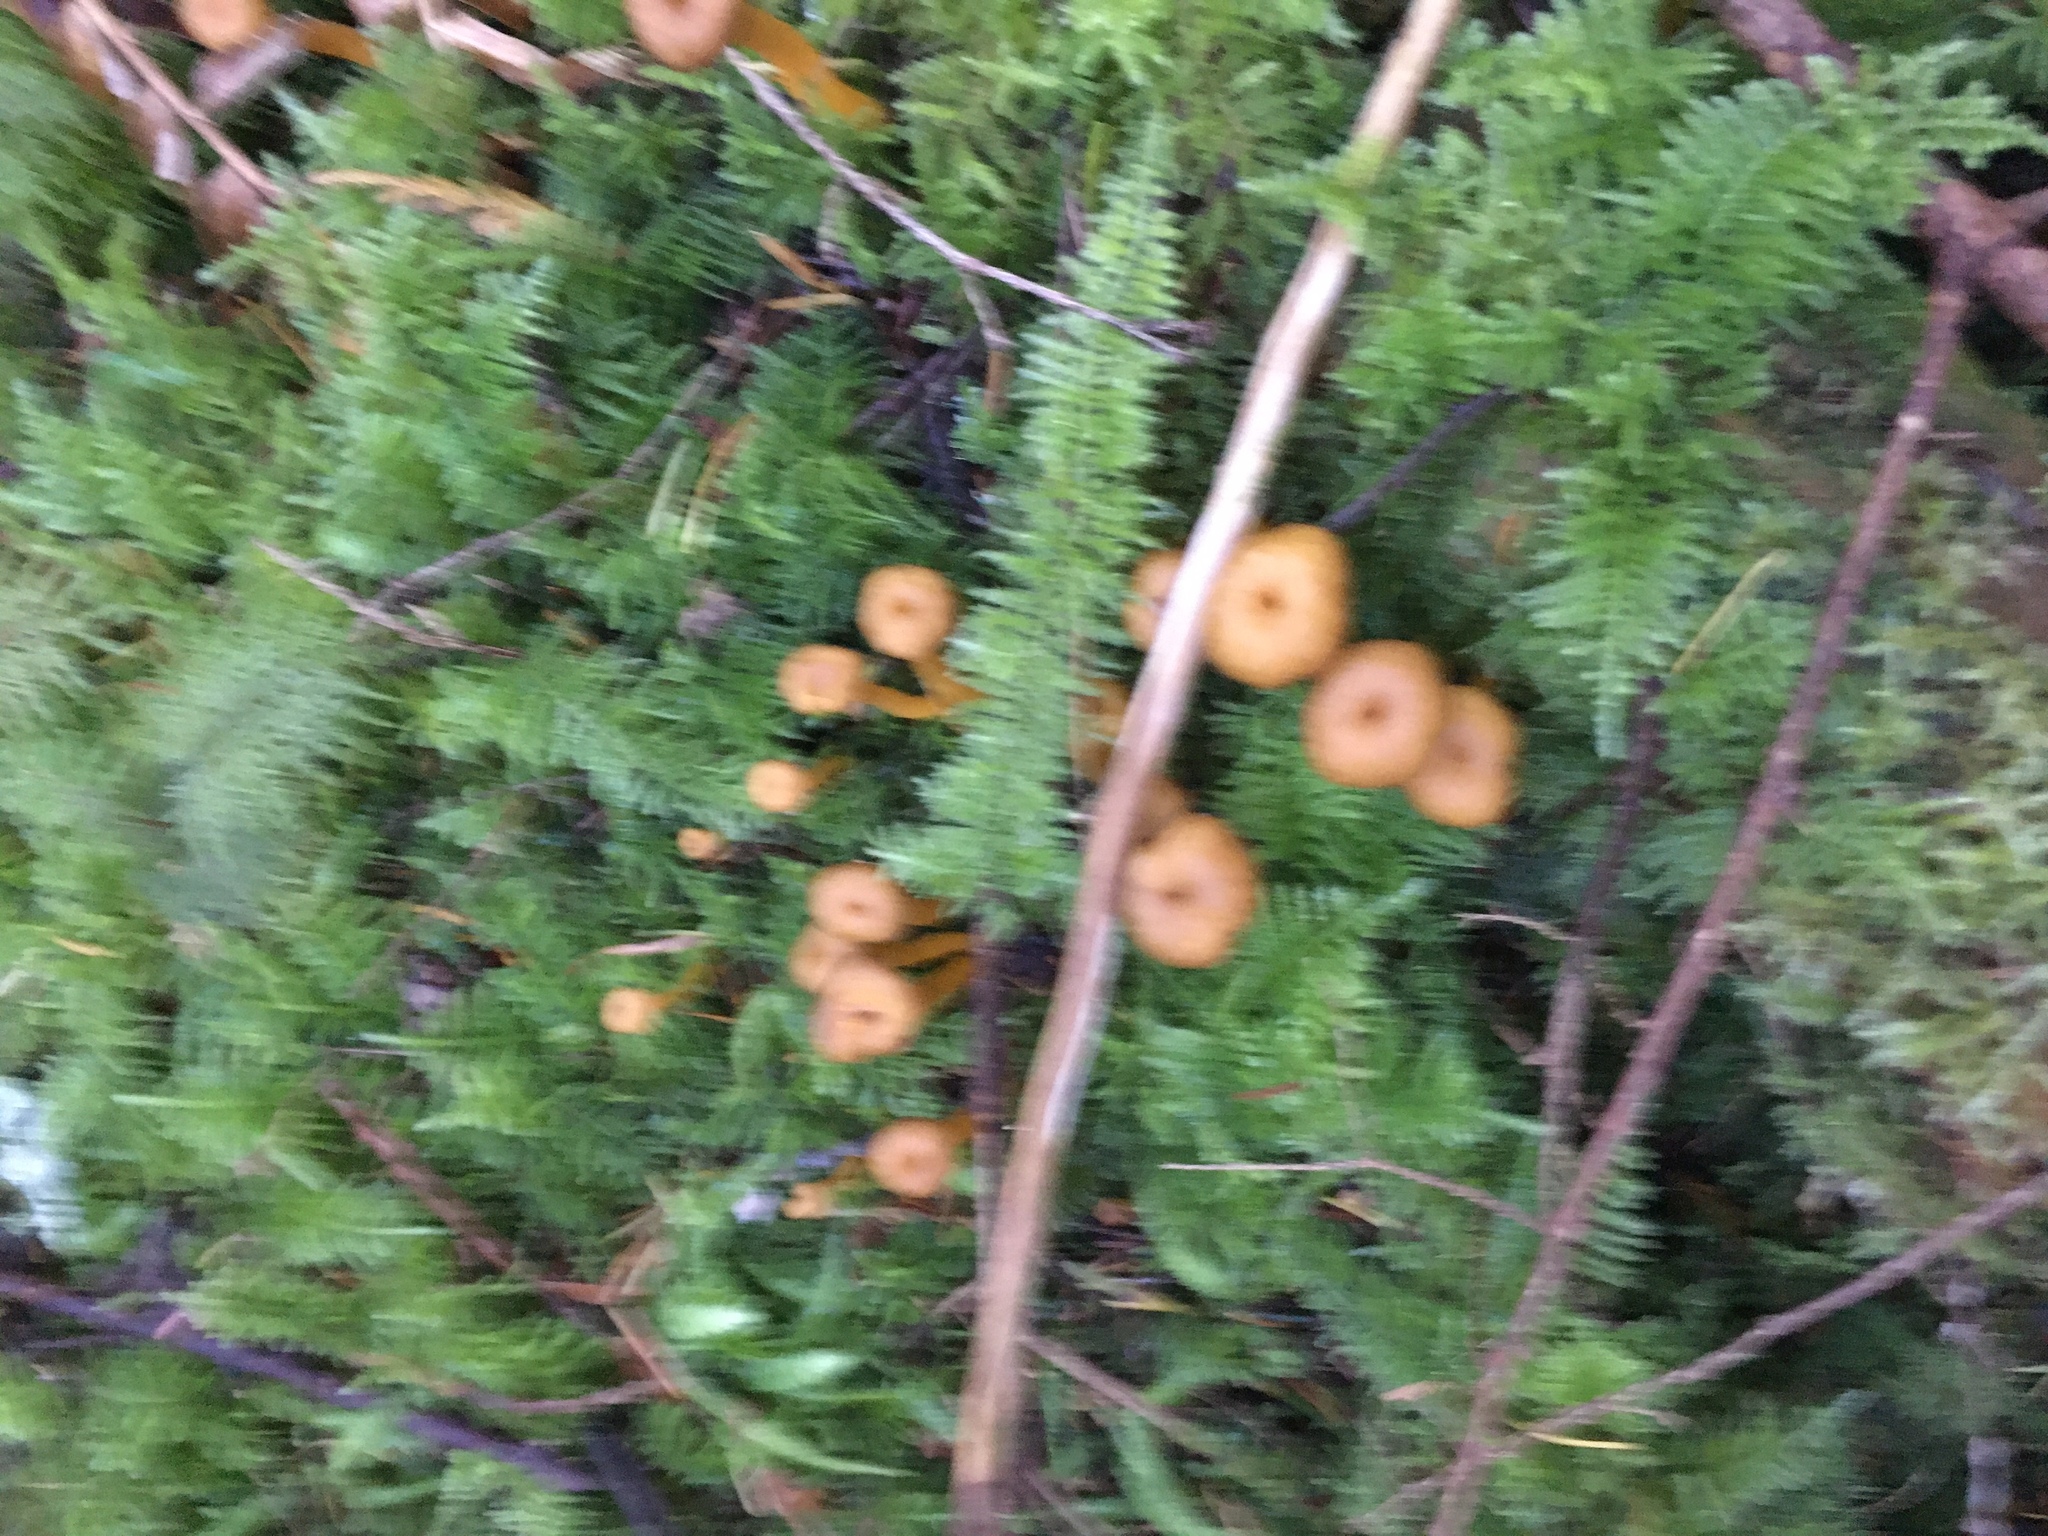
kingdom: Fungi
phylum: Basidiomycota
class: Agaricomycetes
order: Cantharellales
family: Hydnaceae
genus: Craterellus
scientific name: Craterellus tubaeformis
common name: Yellowfoot
